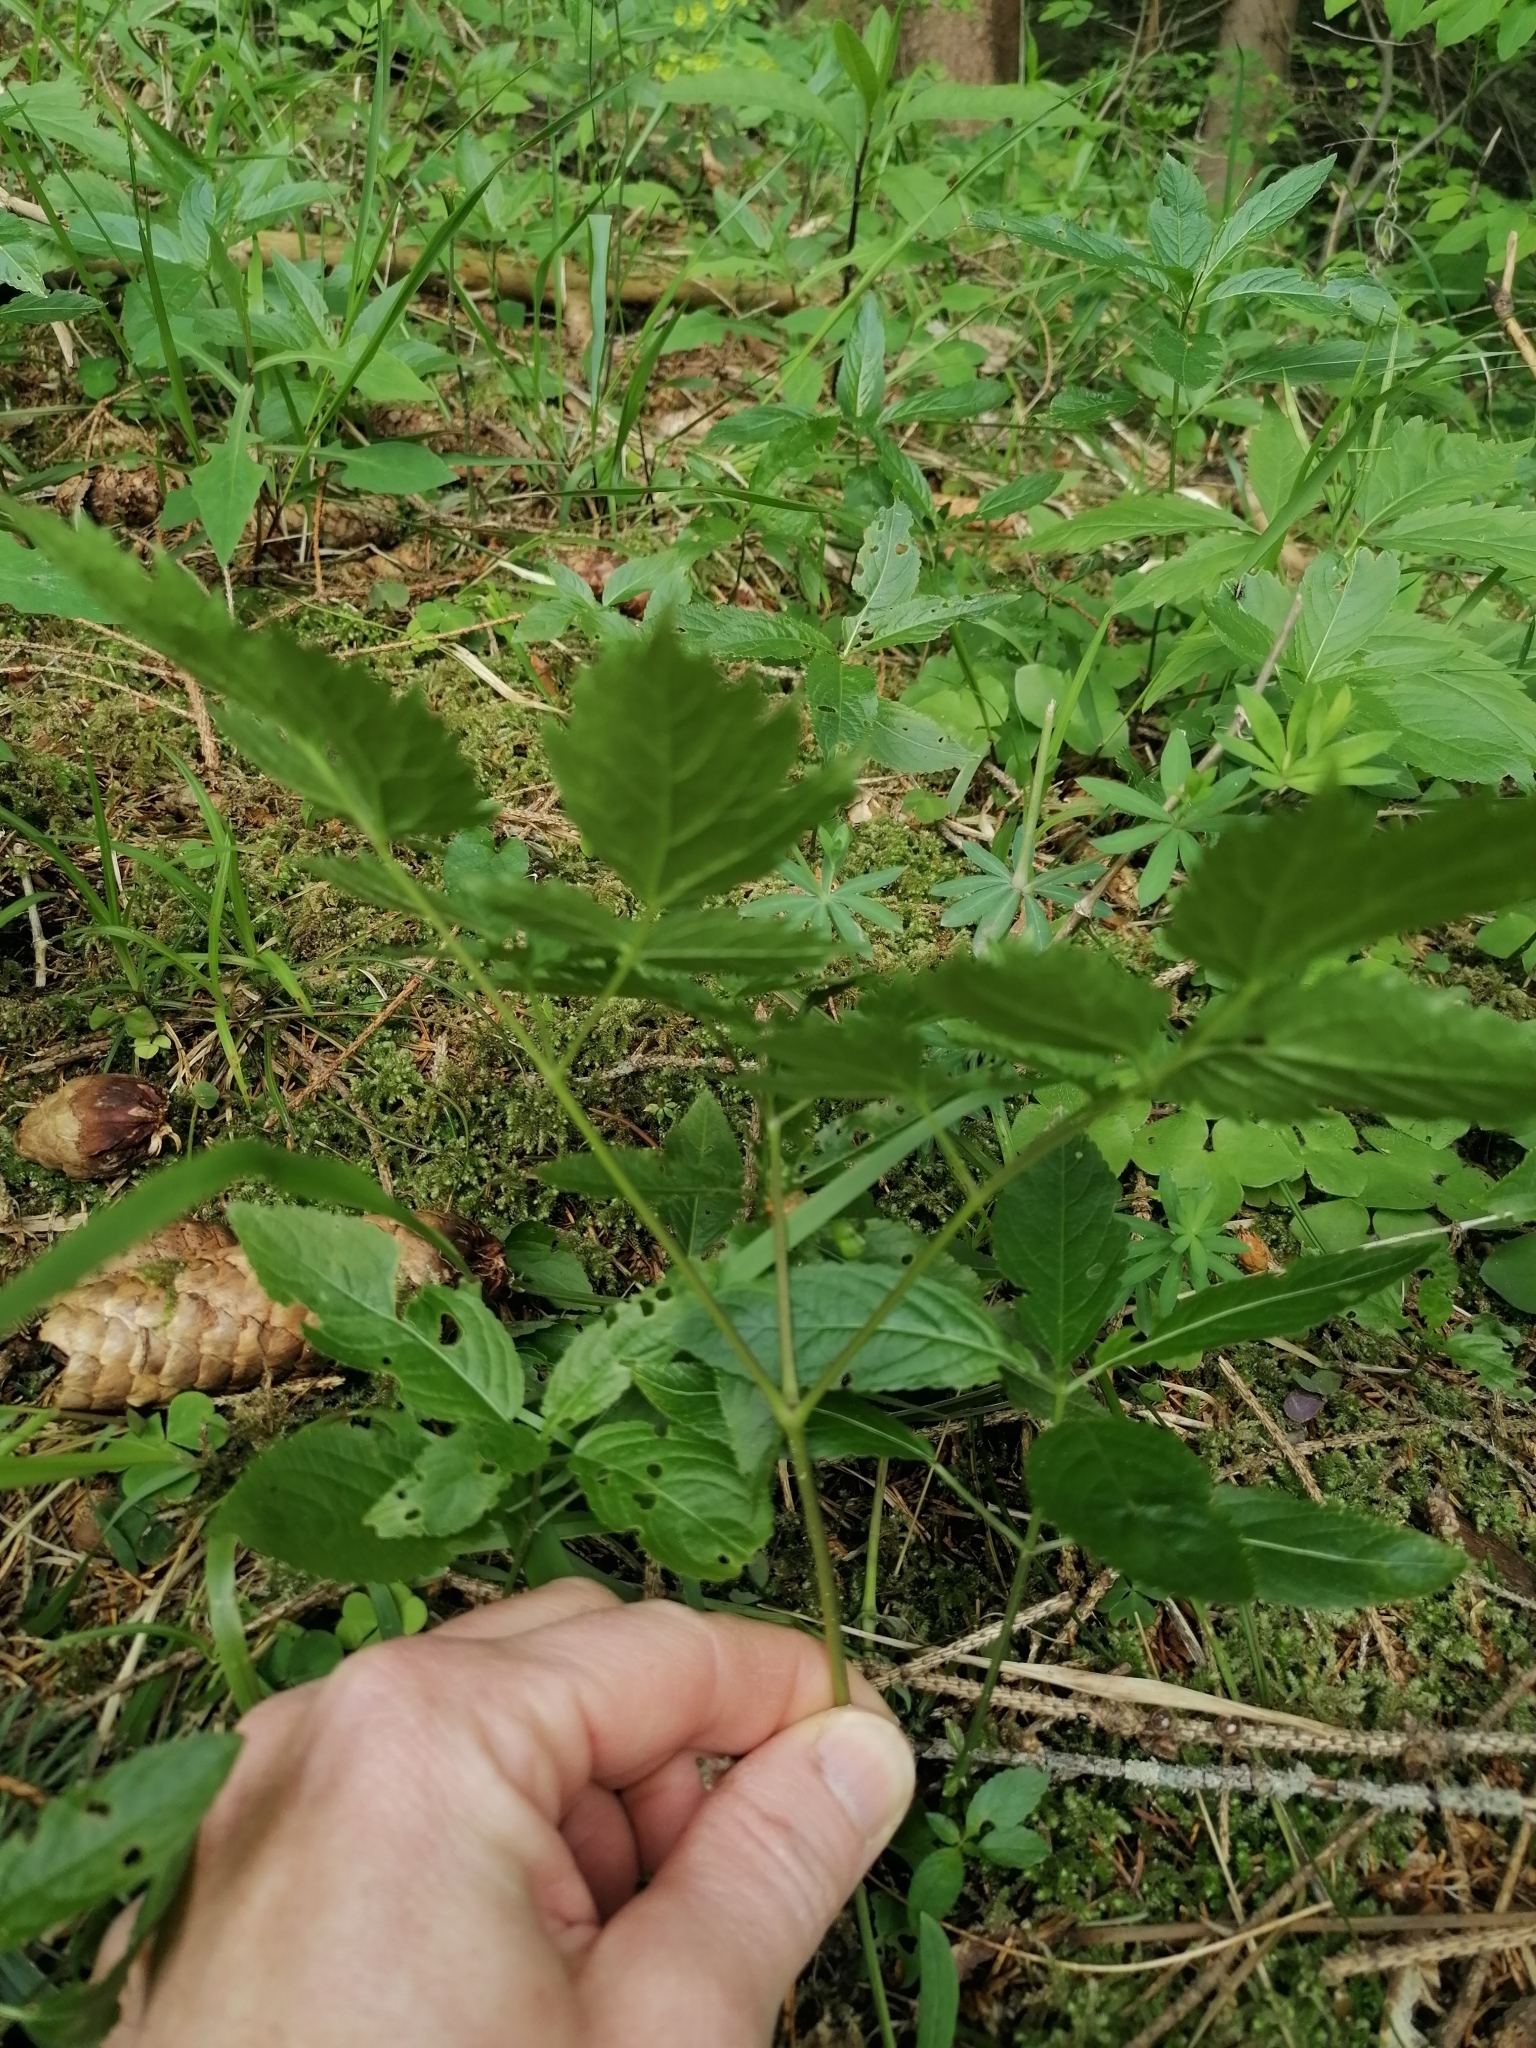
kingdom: Plantae
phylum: Tracheophyta
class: Magnoliopsida
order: Ranunculales
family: Ranunculaceae
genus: Actaea
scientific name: Actaea spicata
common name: Baneberry
